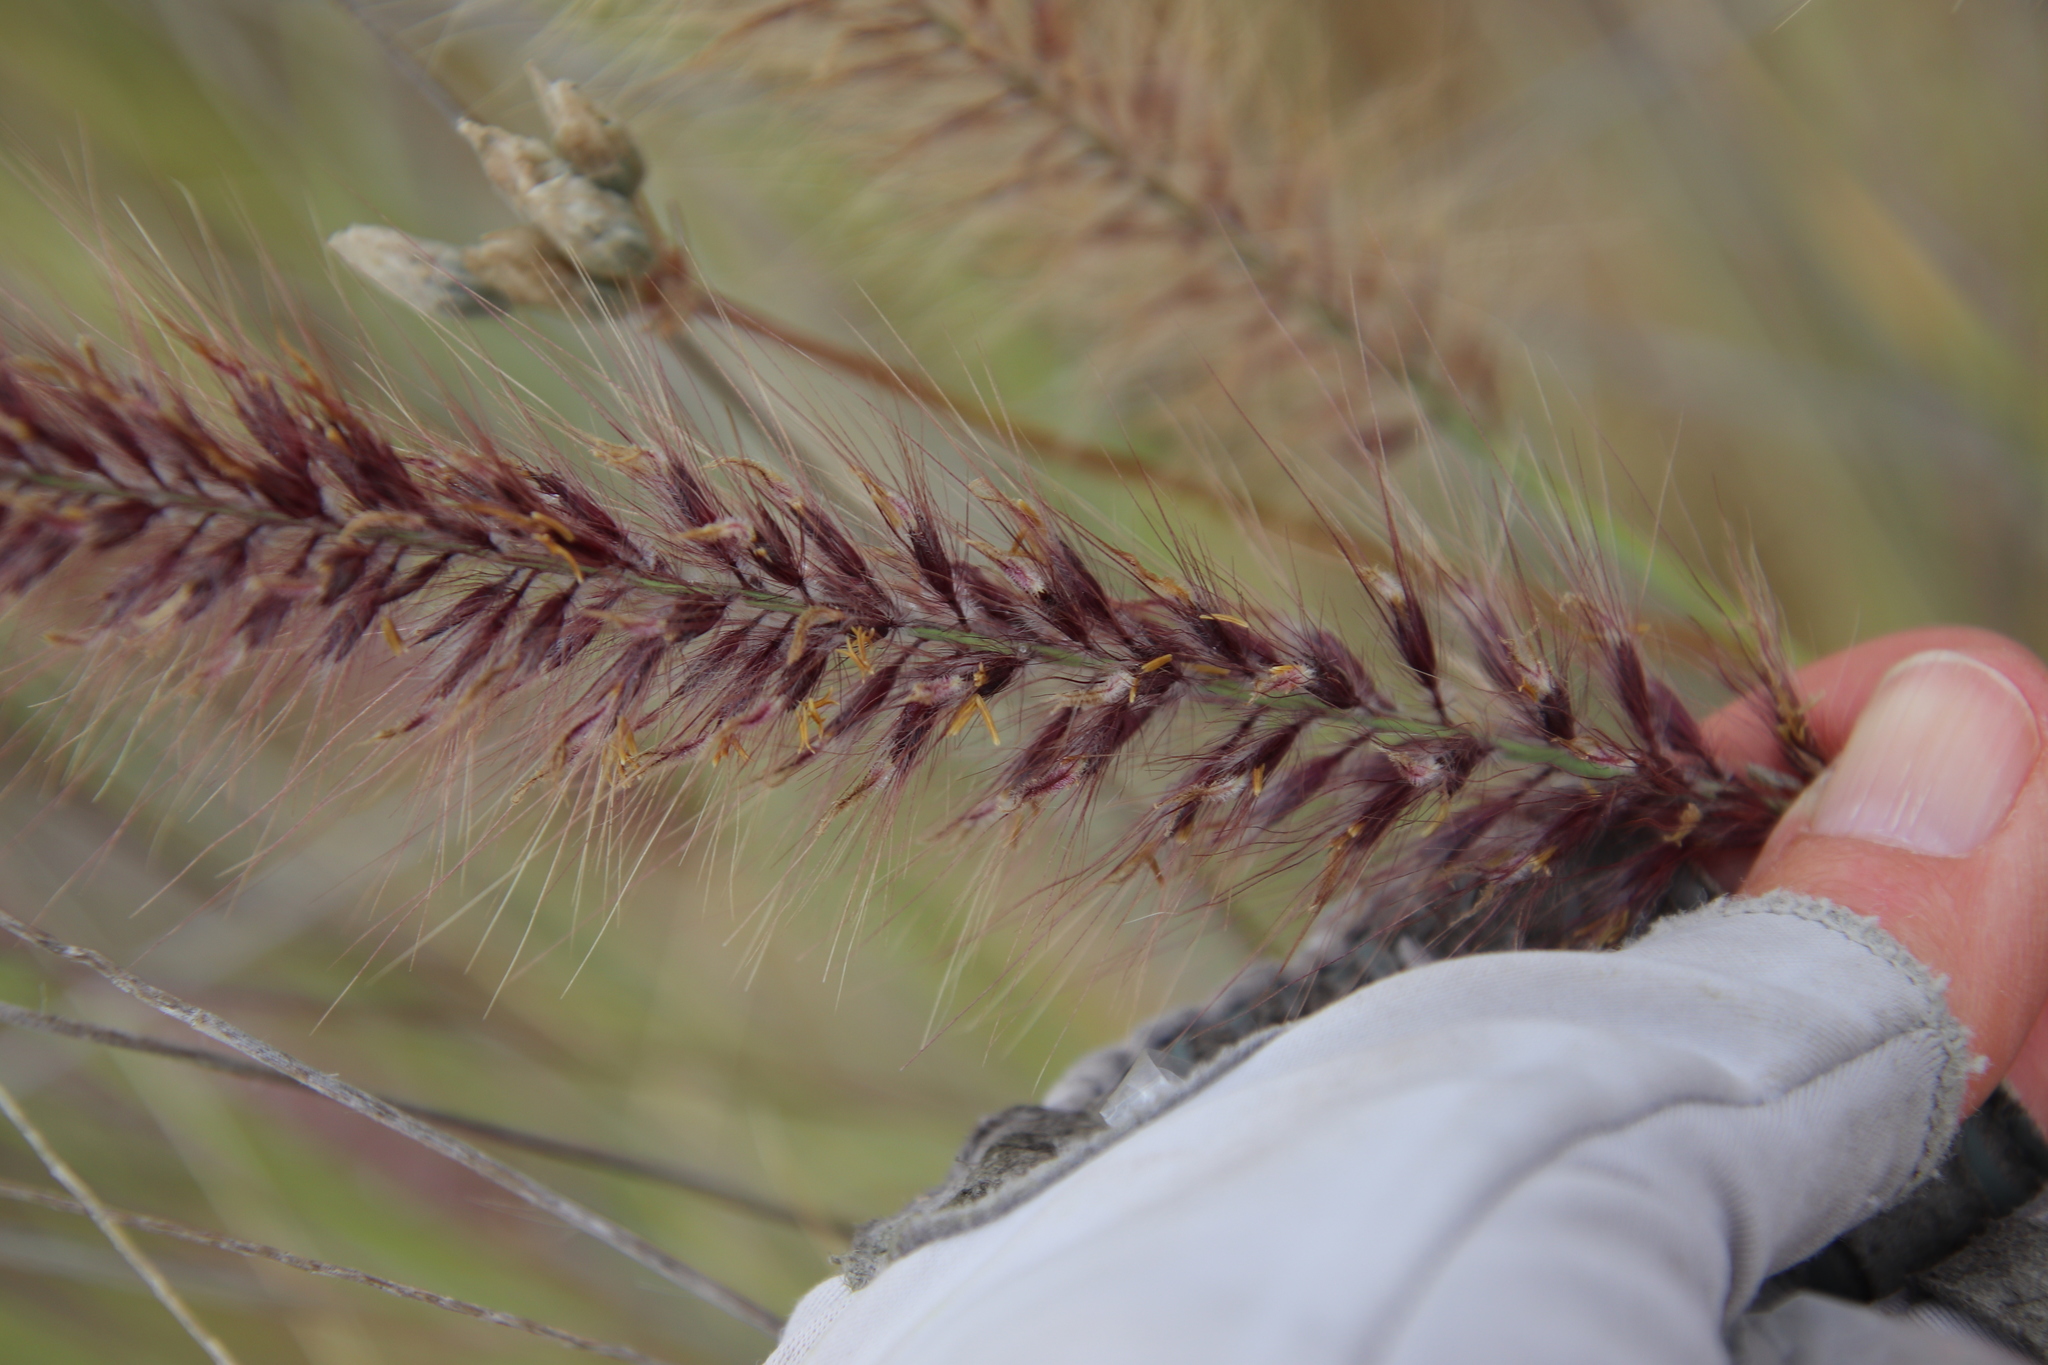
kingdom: Plantae
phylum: Tracheophyta
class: Liliopsida
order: Poales
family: Poaceae
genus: Cenchrus
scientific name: Cenchrus setaceus
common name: Crimson fountaingrass
